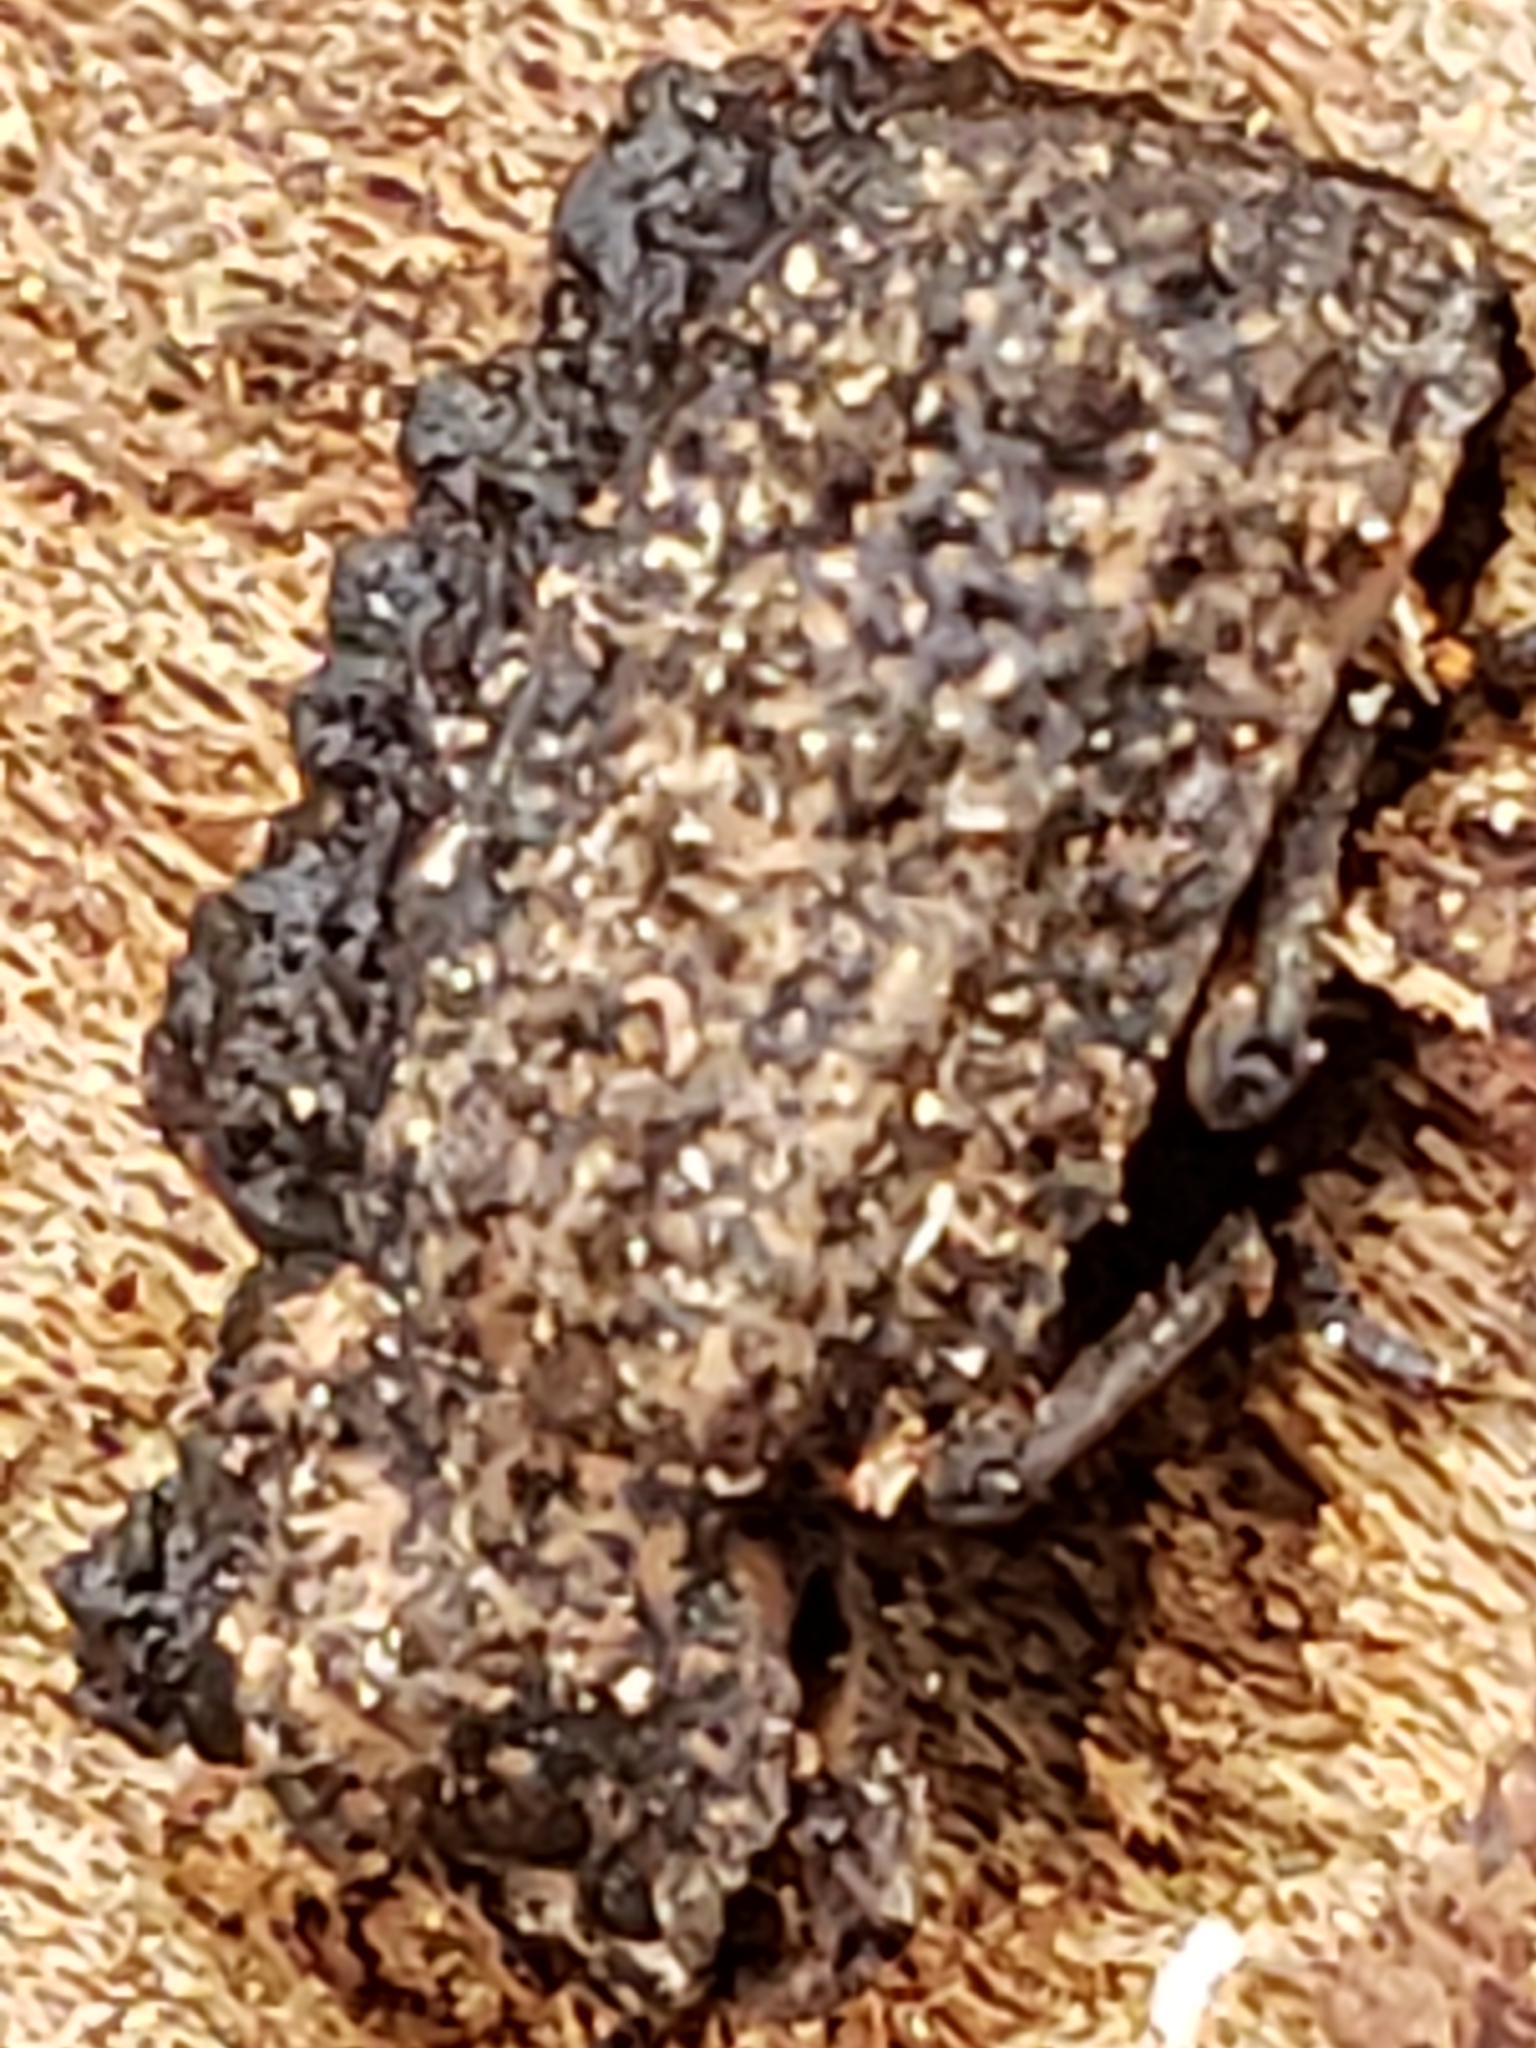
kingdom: Animalia
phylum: Arthropoda
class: Insecta
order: Coleoptera
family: Tenebrionidae
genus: Gnatocerus
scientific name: Gnatocerus cornutus
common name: Broad-horned flour beetle
